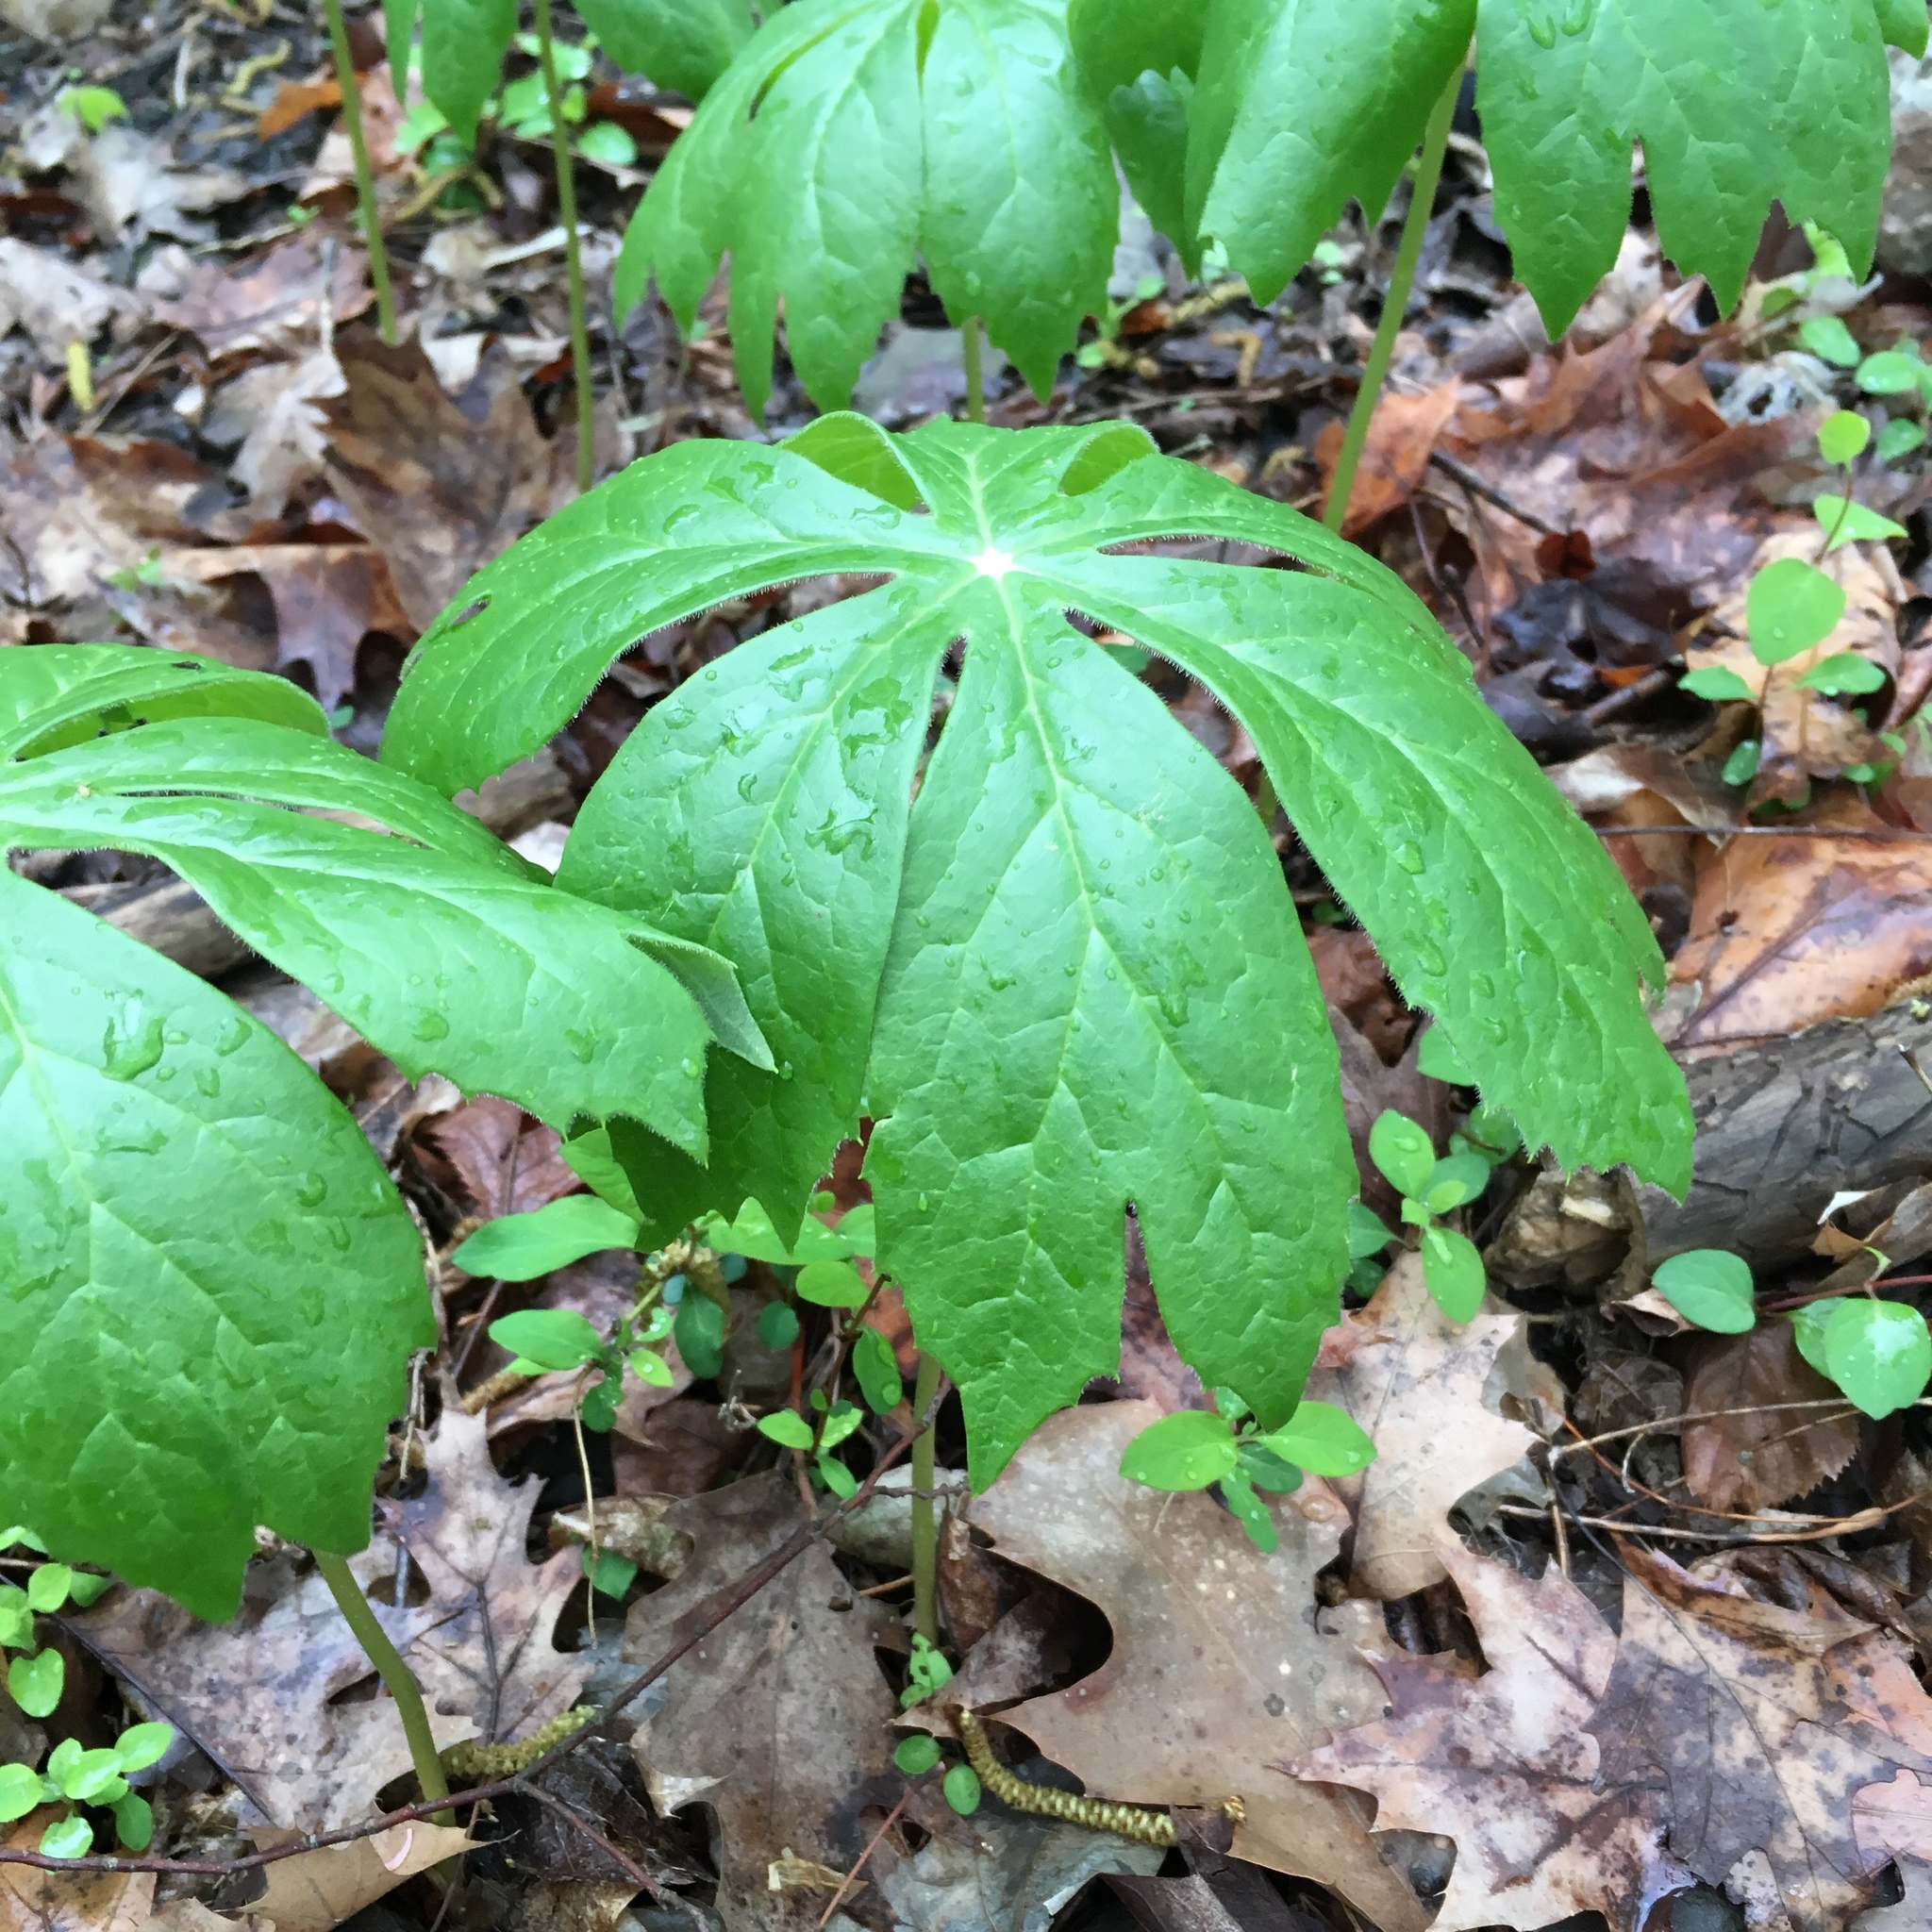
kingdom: Plantae
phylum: Tracheophyta
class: Magnoliopsida
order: Ranunculales
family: Berberidaceae
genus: Podophyllum
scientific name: Podophyllum peltatum
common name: Wild mandrake
